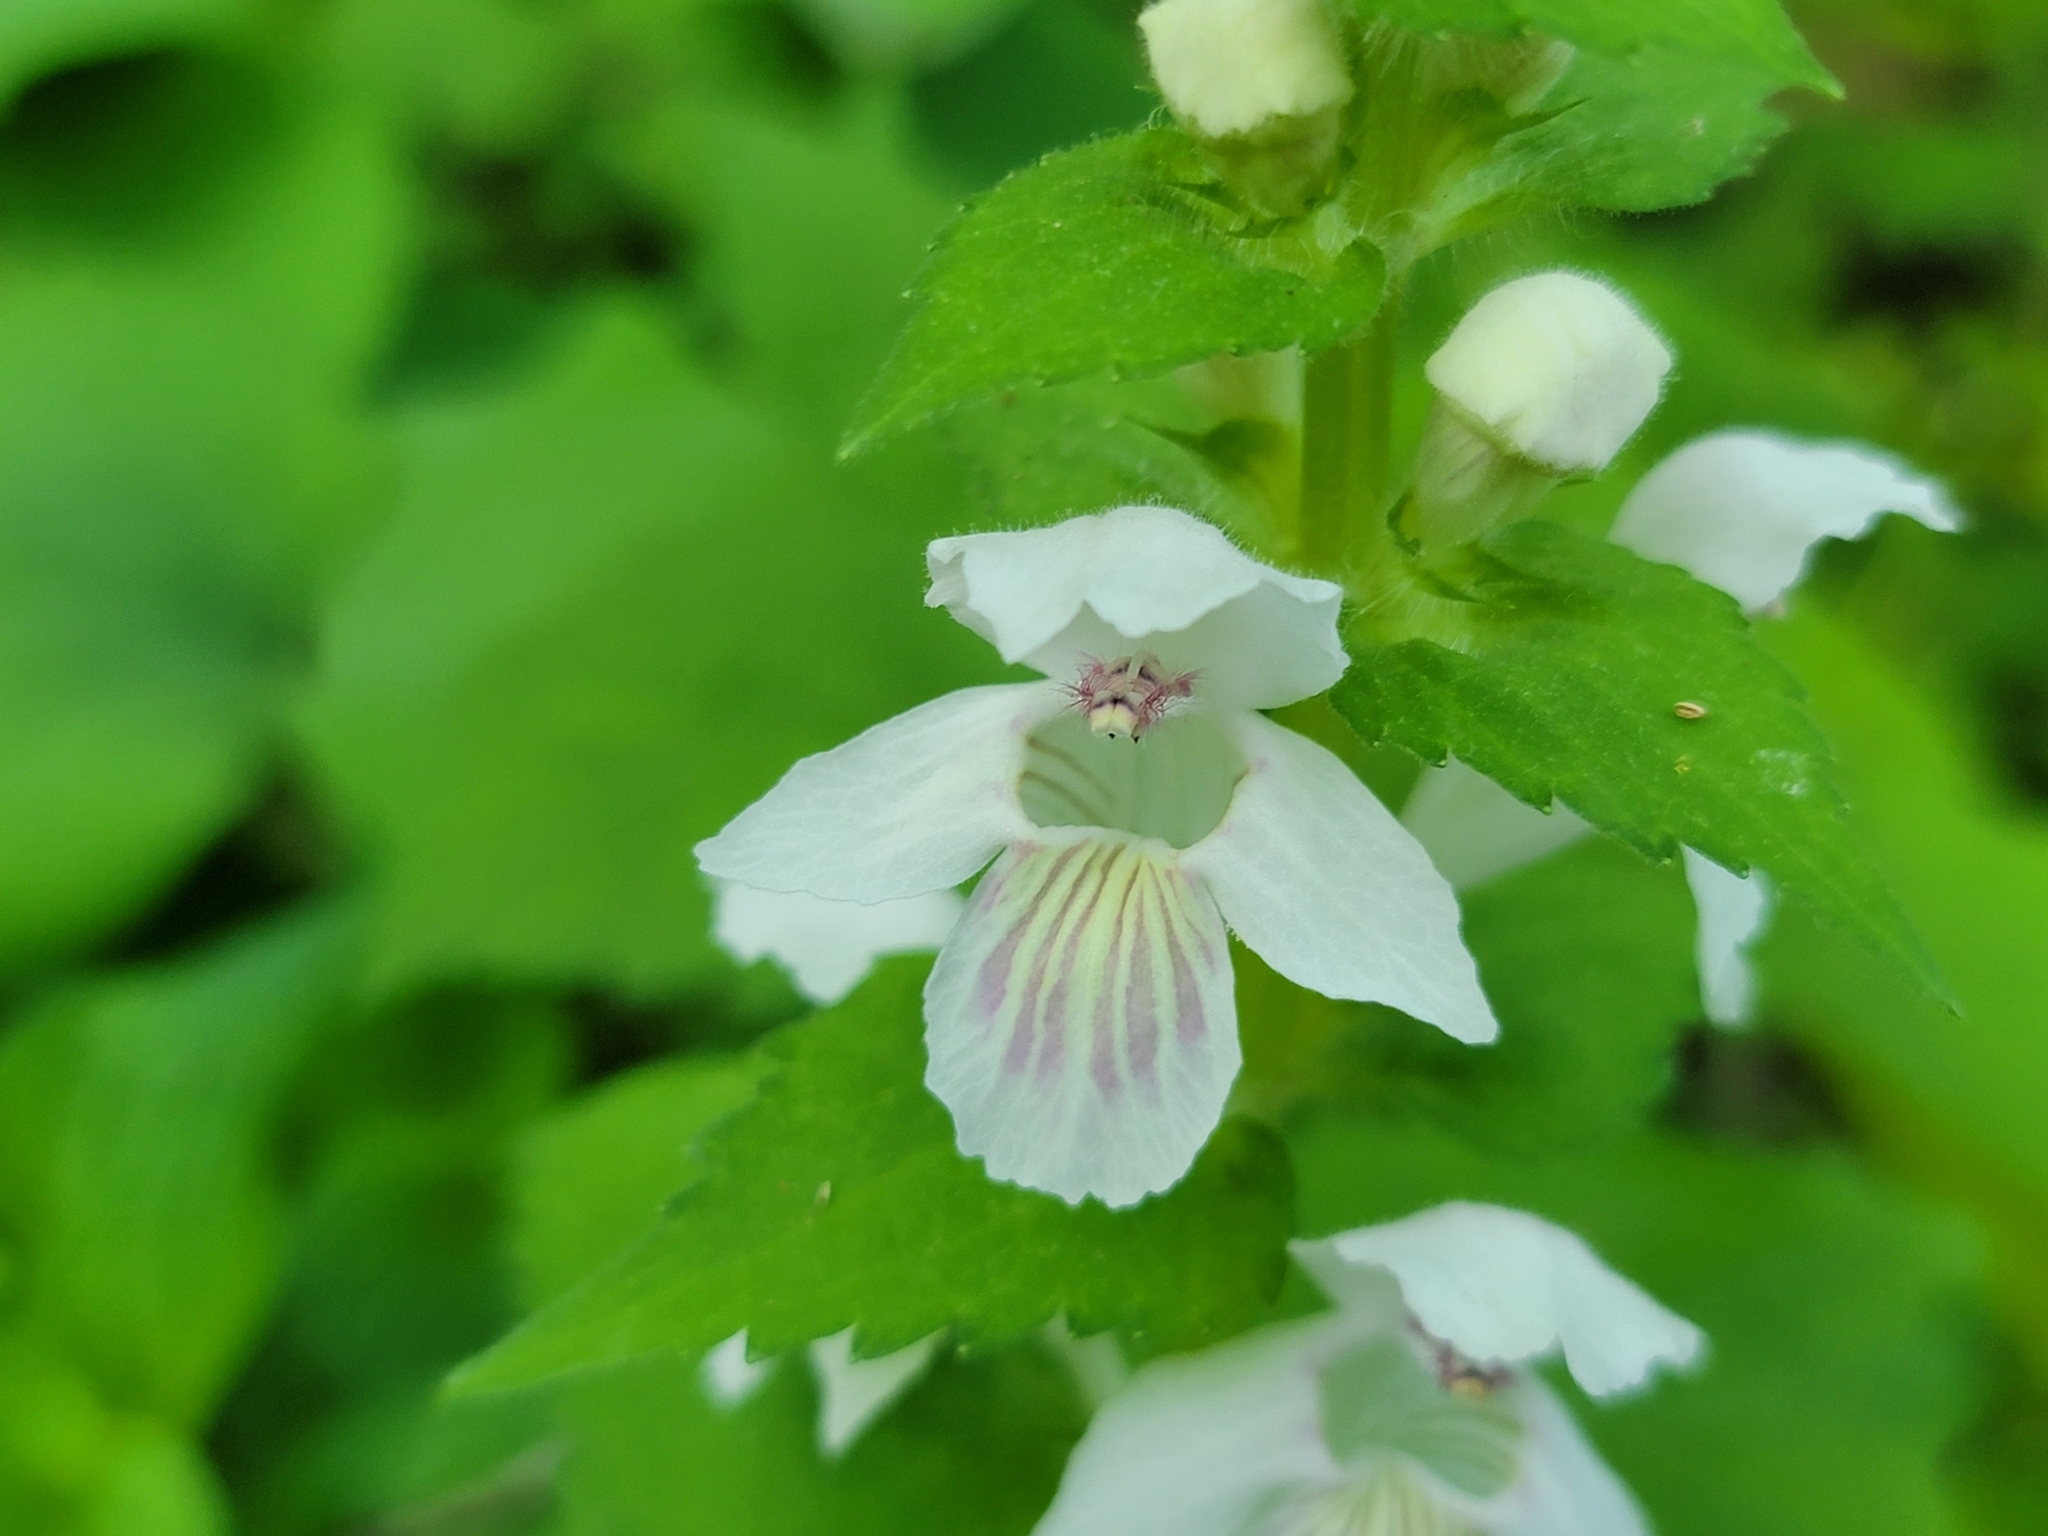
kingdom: Plantae
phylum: Tracheophyta
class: Magnoliopsida
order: Lamiales
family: Lamiaceae
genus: Synandra
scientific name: Synandra hispidula
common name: Synandra
